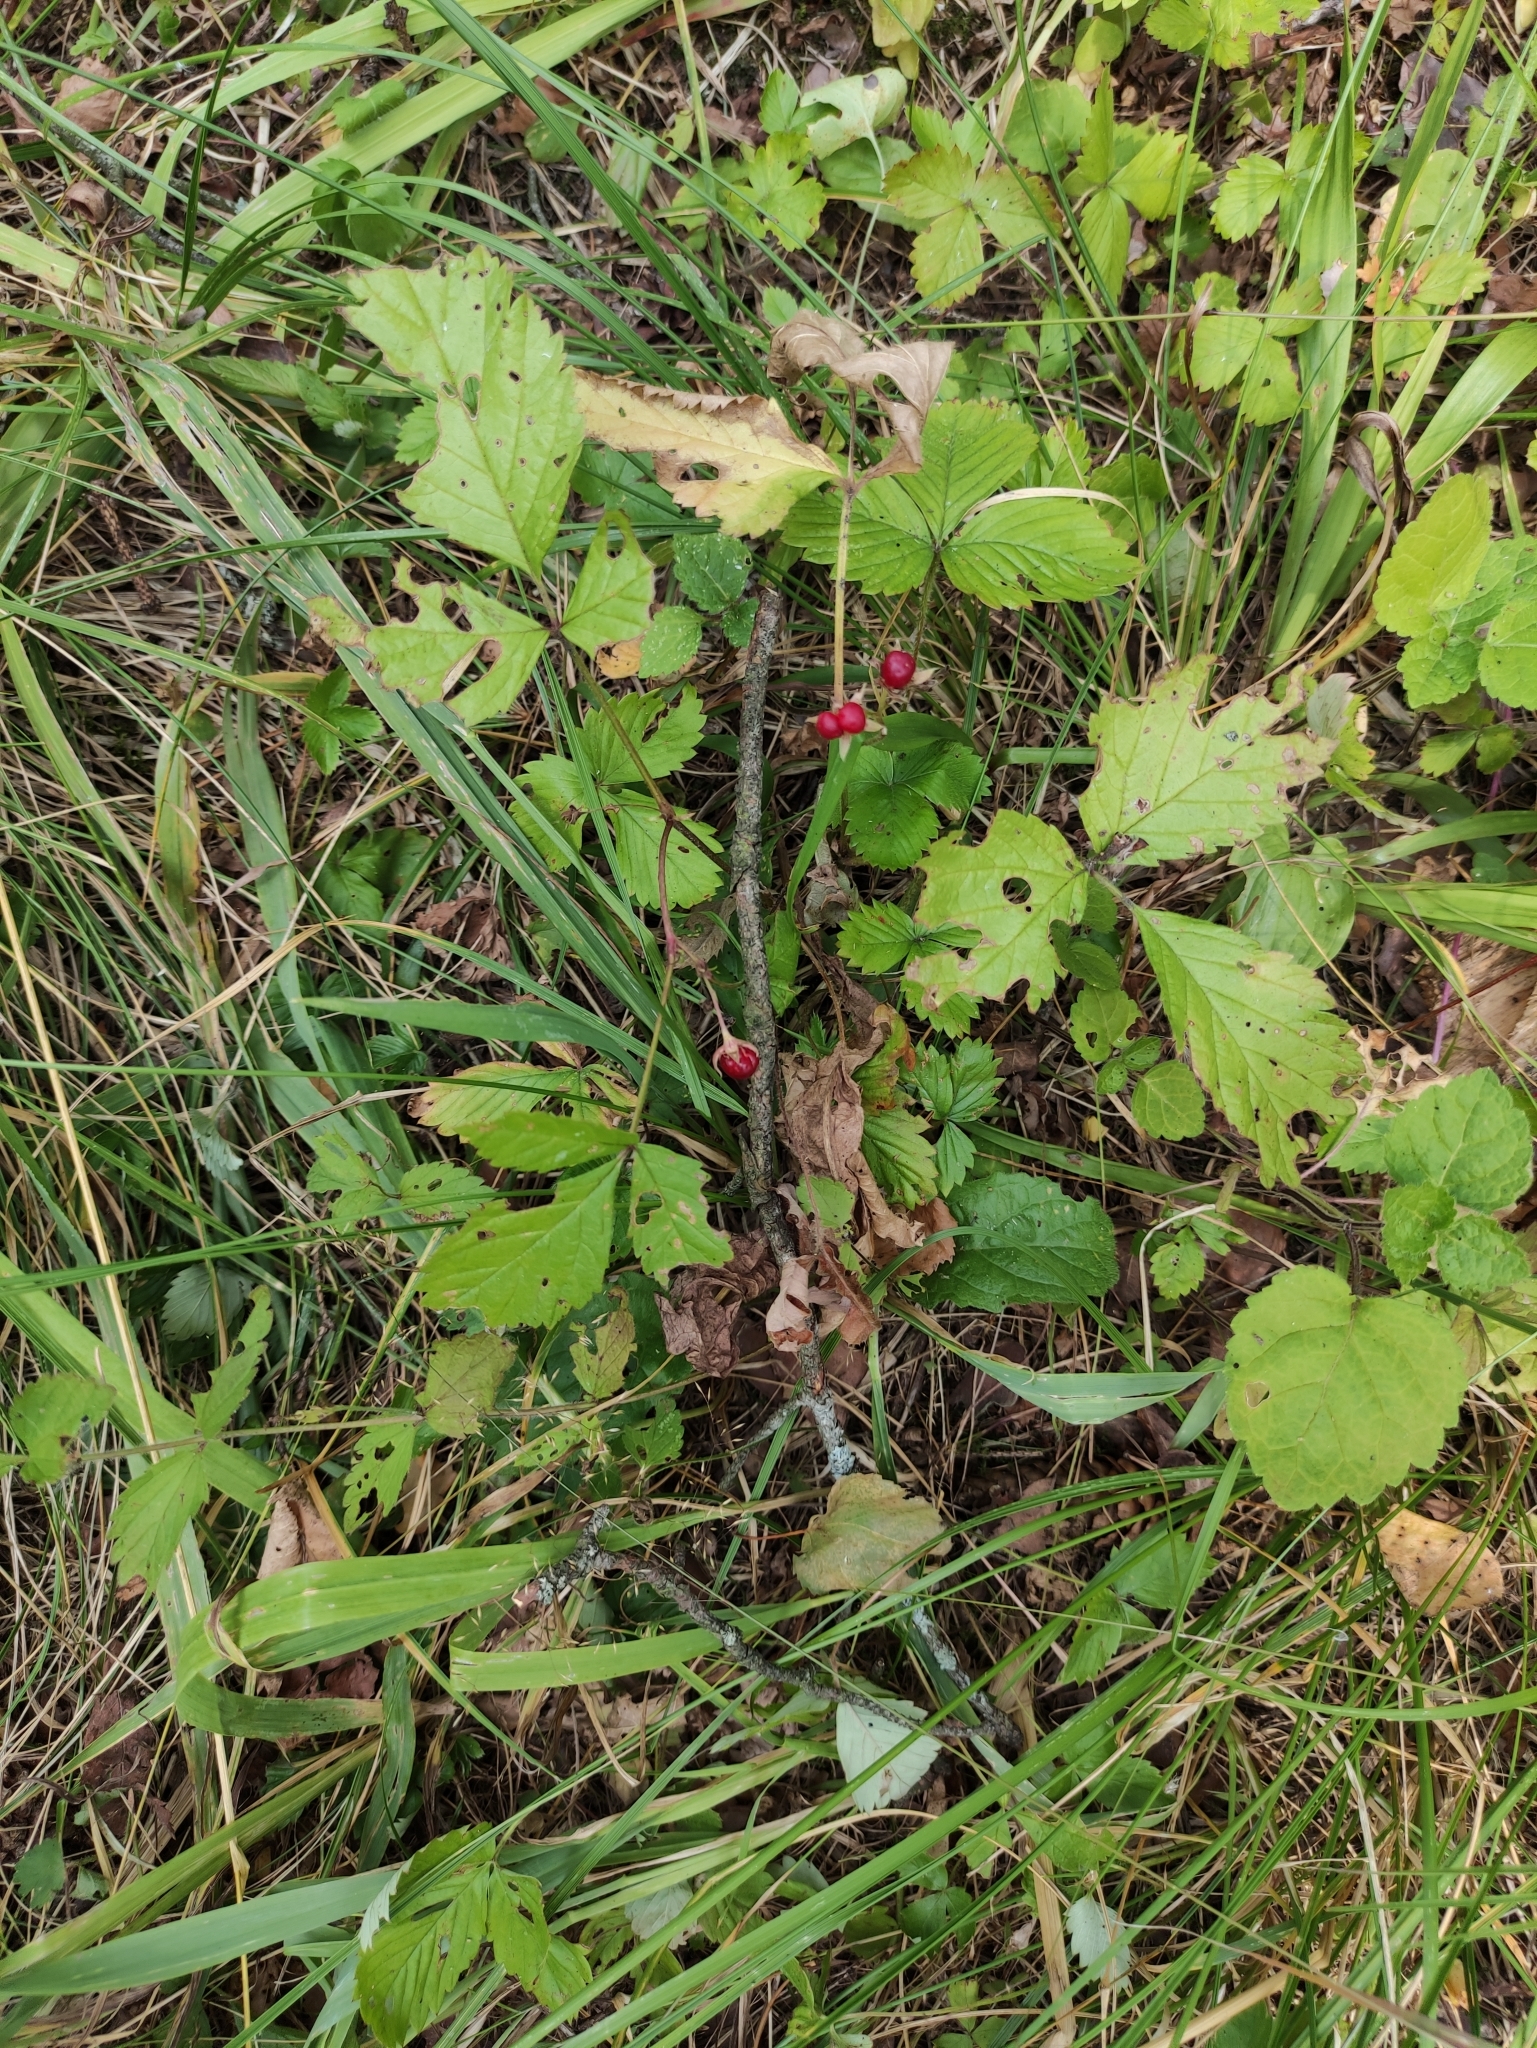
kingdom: Plantae
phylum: Tracheophyta
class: Magnoliopsida
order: Rosales
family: Rosaceae
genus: Rubus
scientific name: Rubus saxatilis
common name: Stone bramble
